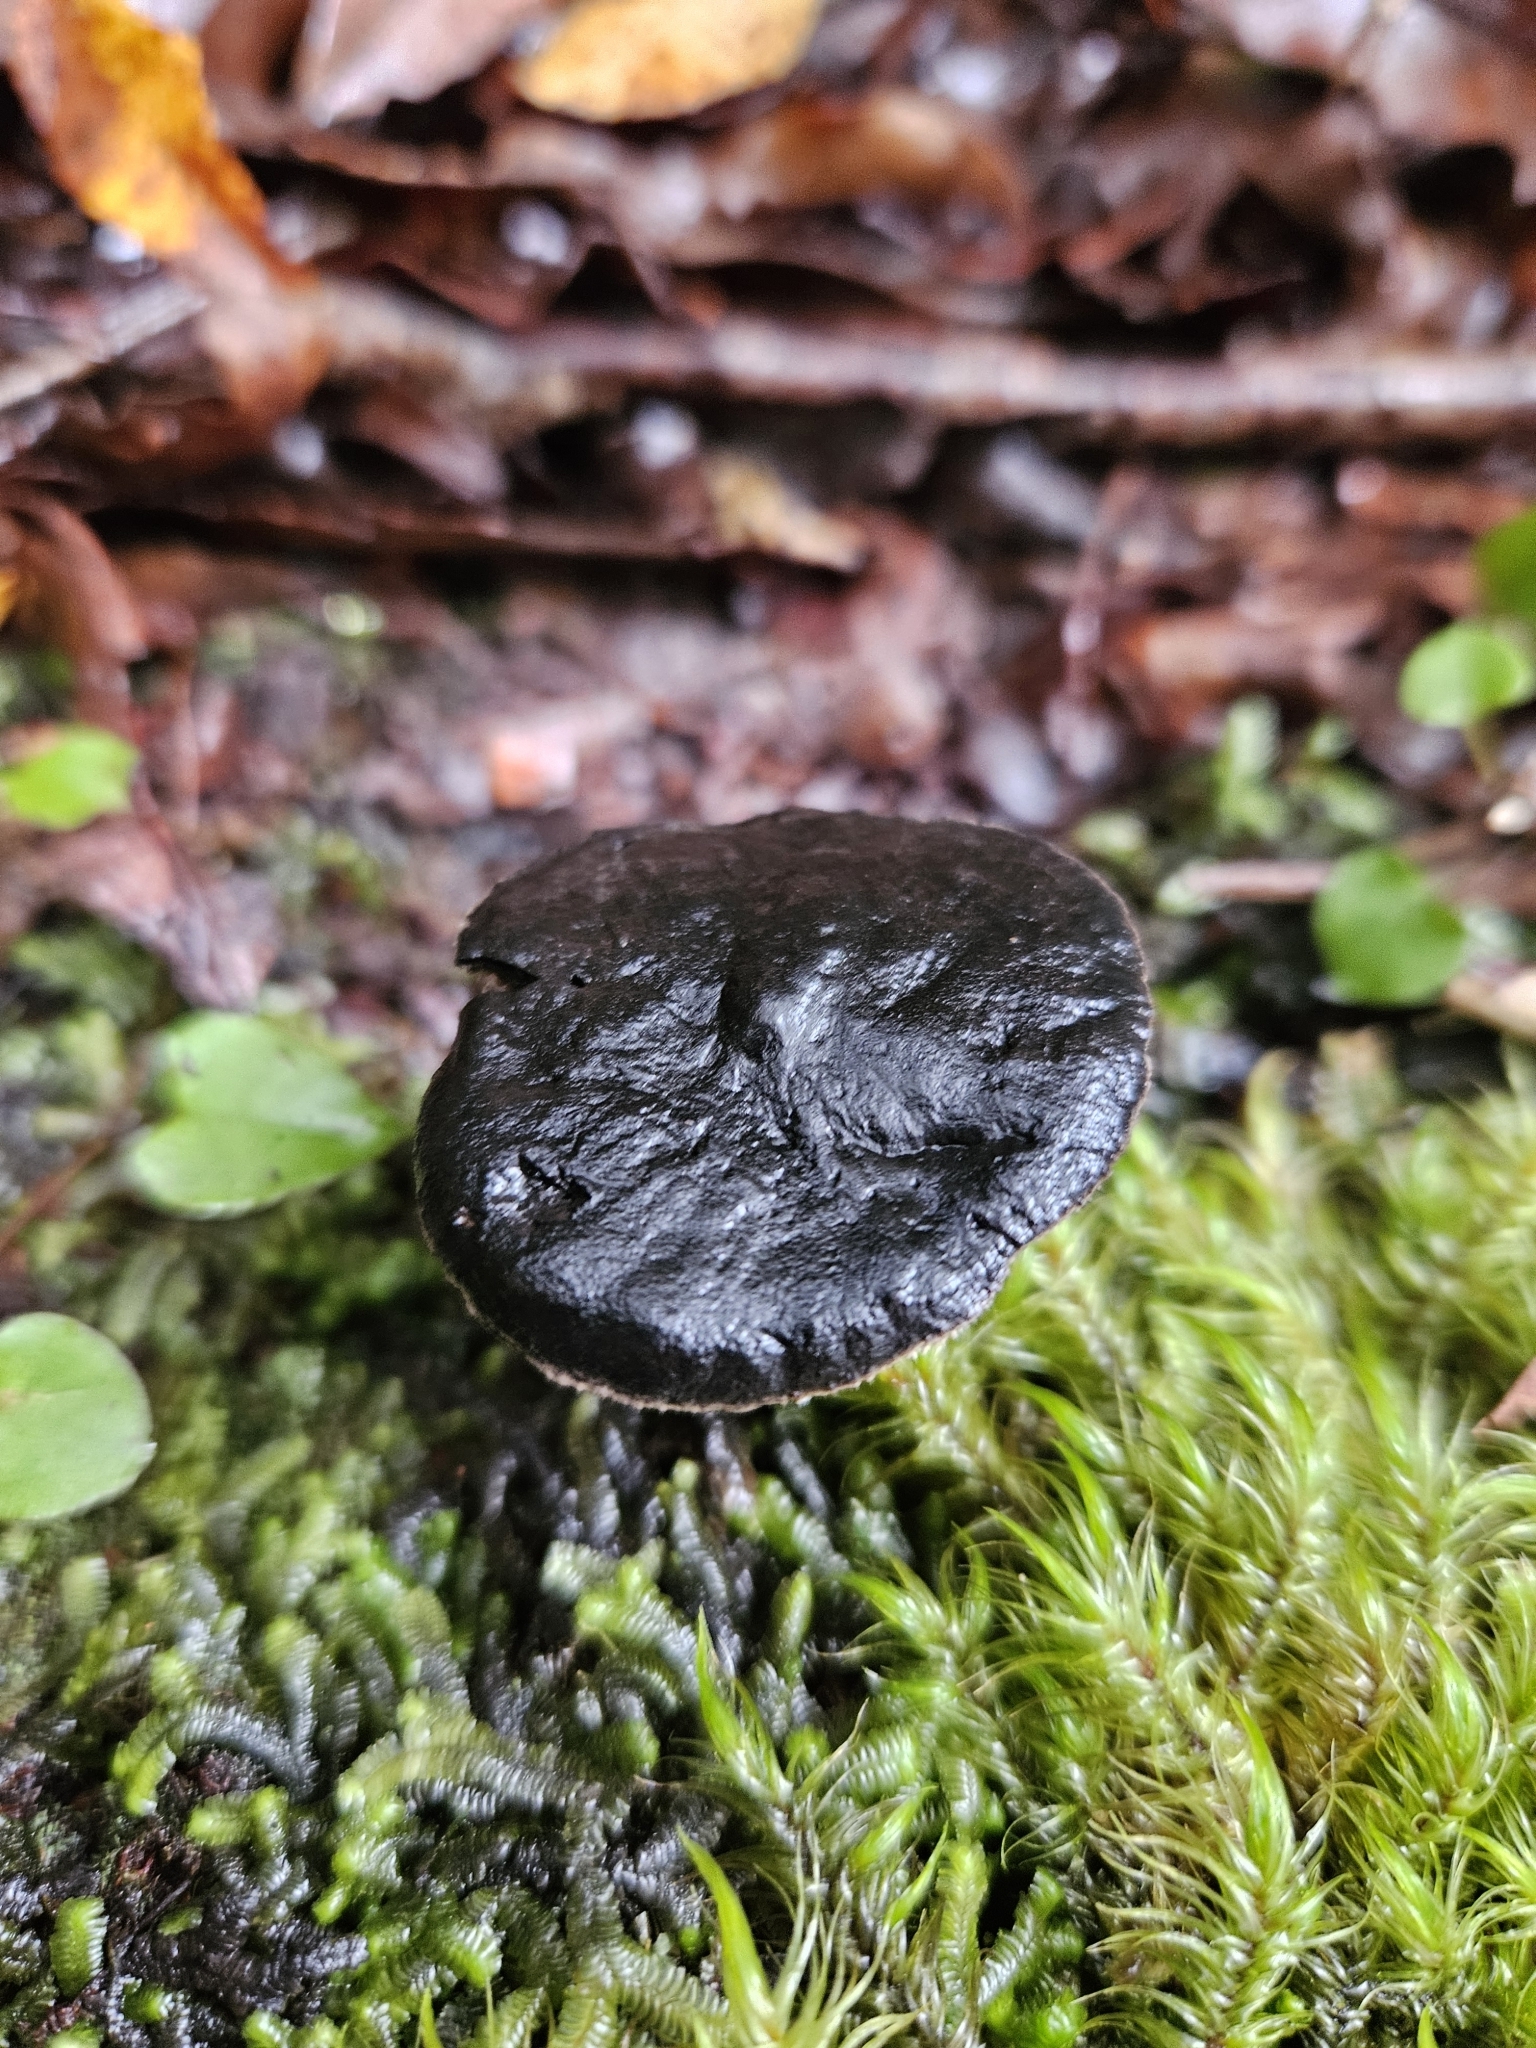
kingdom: Fungi
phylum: Basidiomycota
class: Agaricomycetes
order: Thelephorales
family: Bankeraceae
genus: Sarcodon
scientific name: Sarcodon carbonarius
